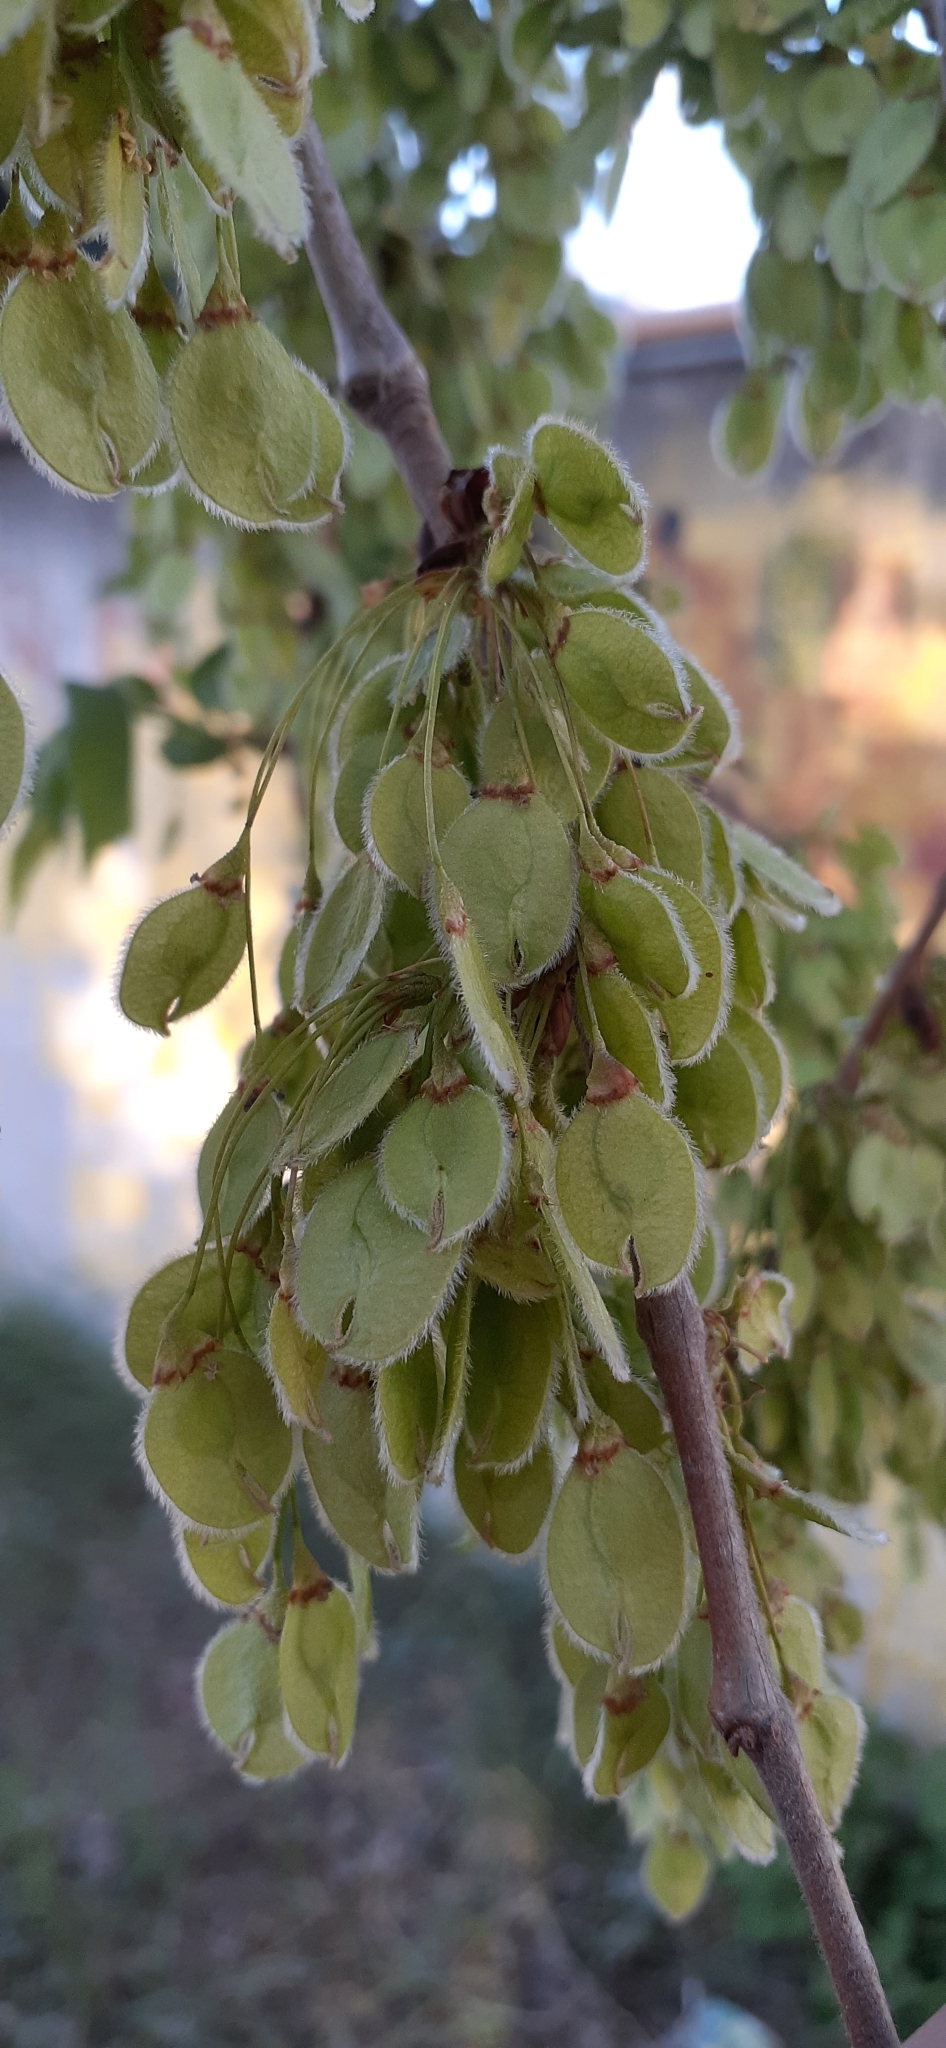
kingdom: Plantae
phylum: Tracheophyta
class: Magnoliopsida
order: Rosales
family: Ulmaceae
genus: Ulmus
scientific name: Ulmus laevis
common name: European white-elm
